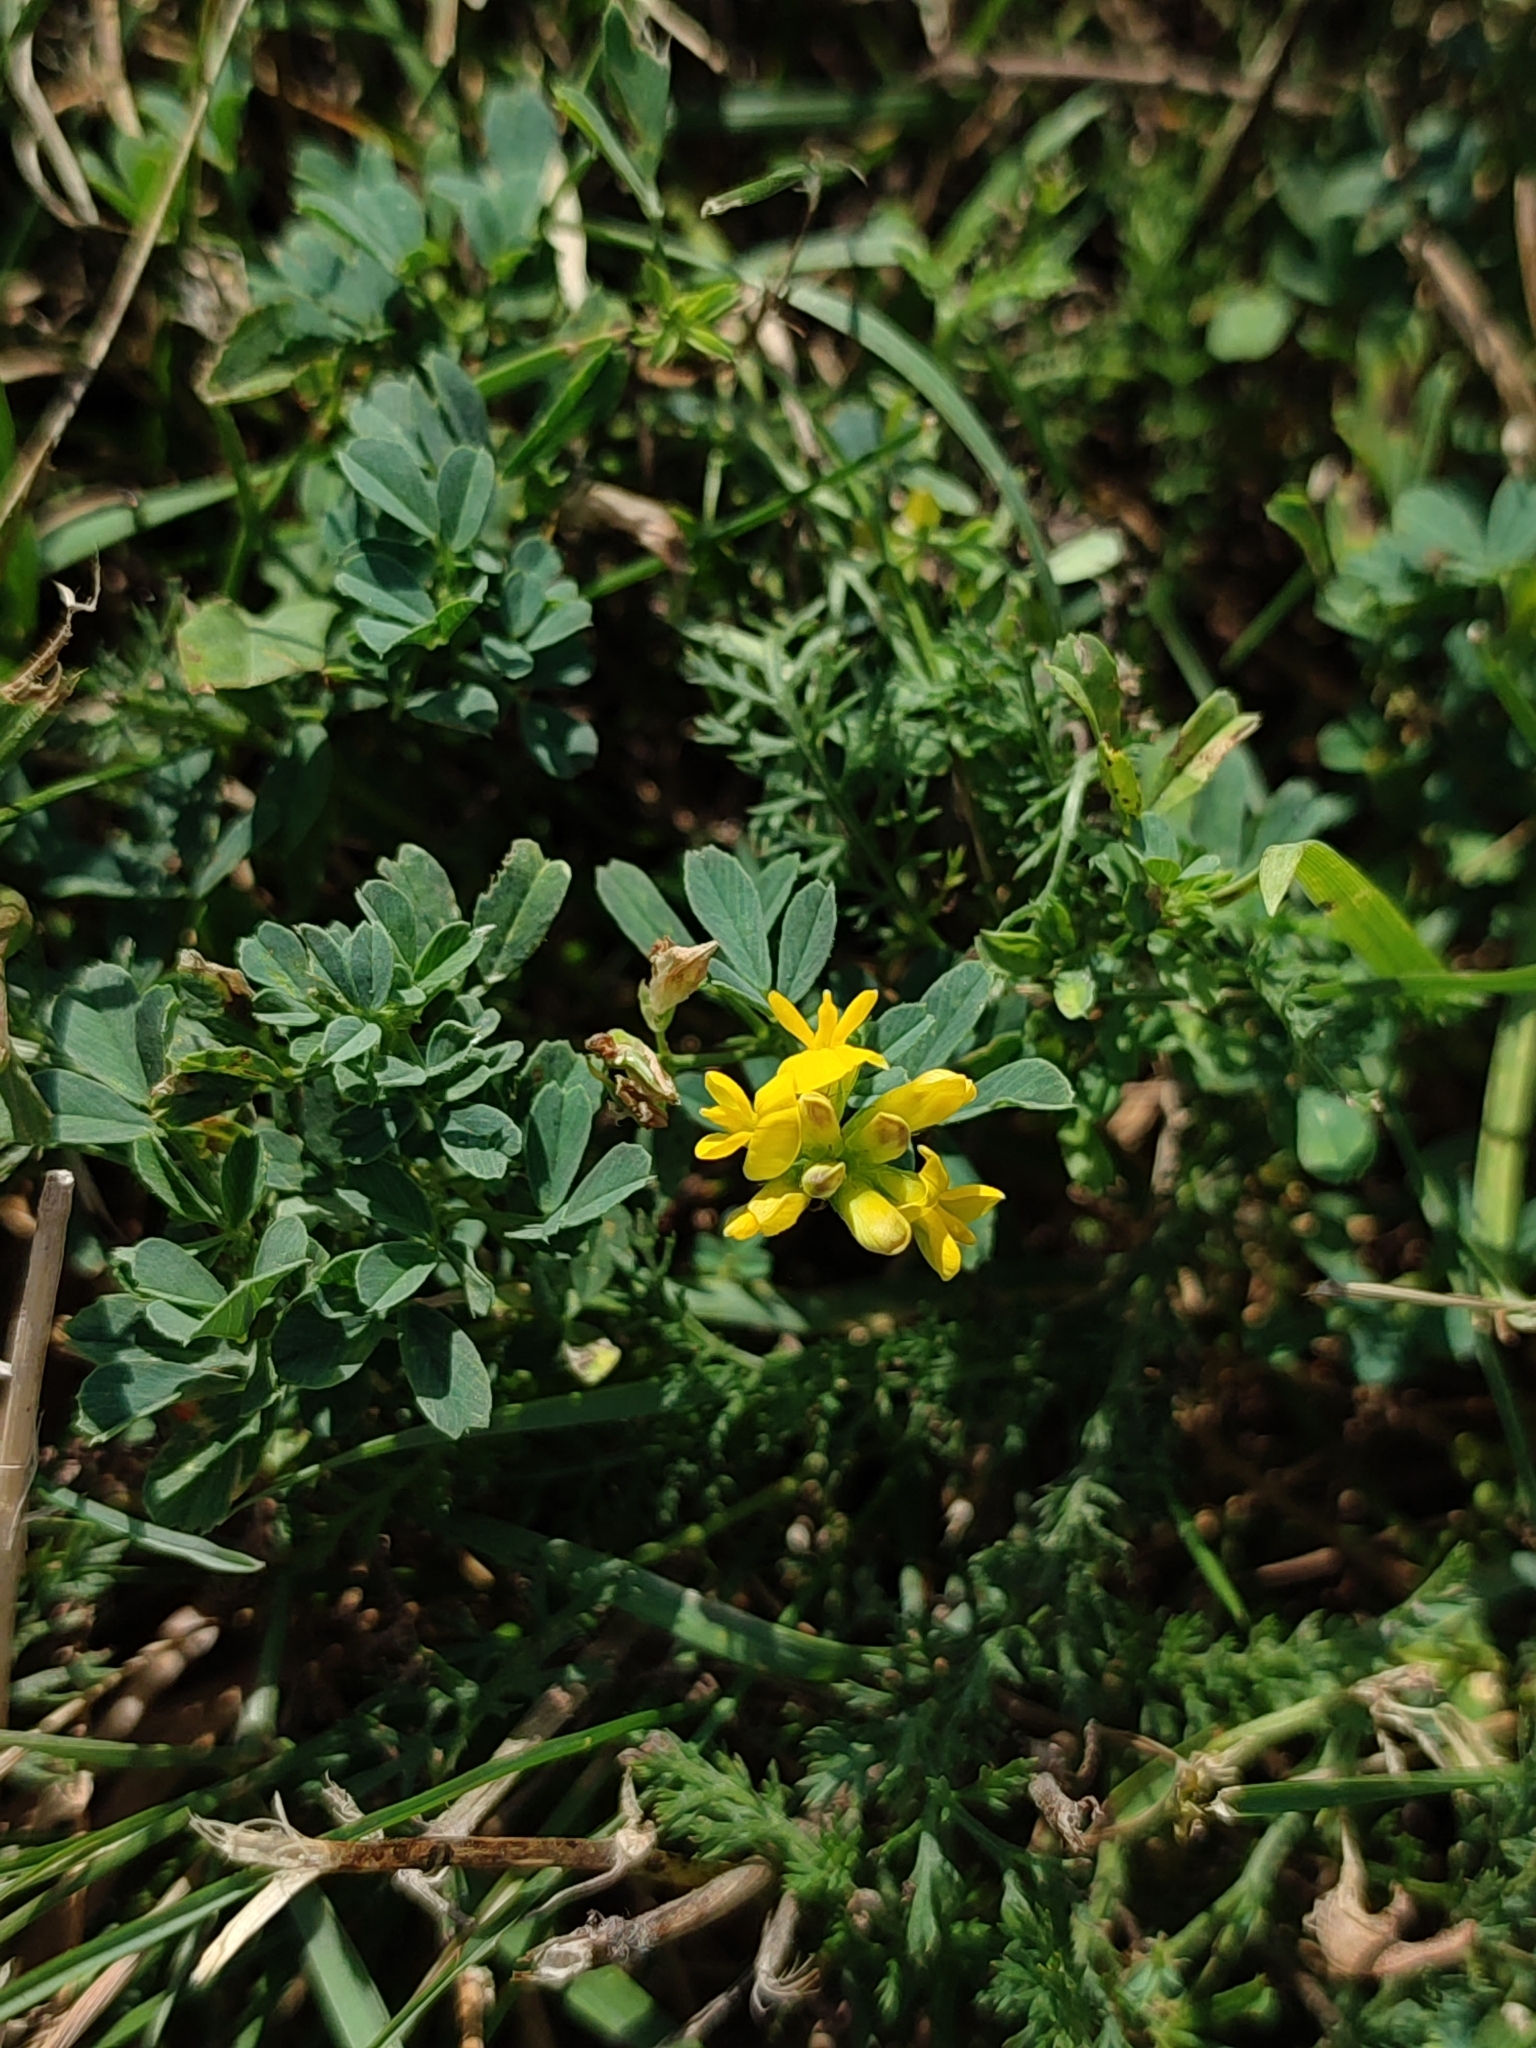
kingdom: Plantae
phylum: Tracheophyta
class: Magnoliopsida
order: Fabales
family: Fabaceae
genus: Medicago
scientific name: Medicago falcata
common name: Sickle medick
